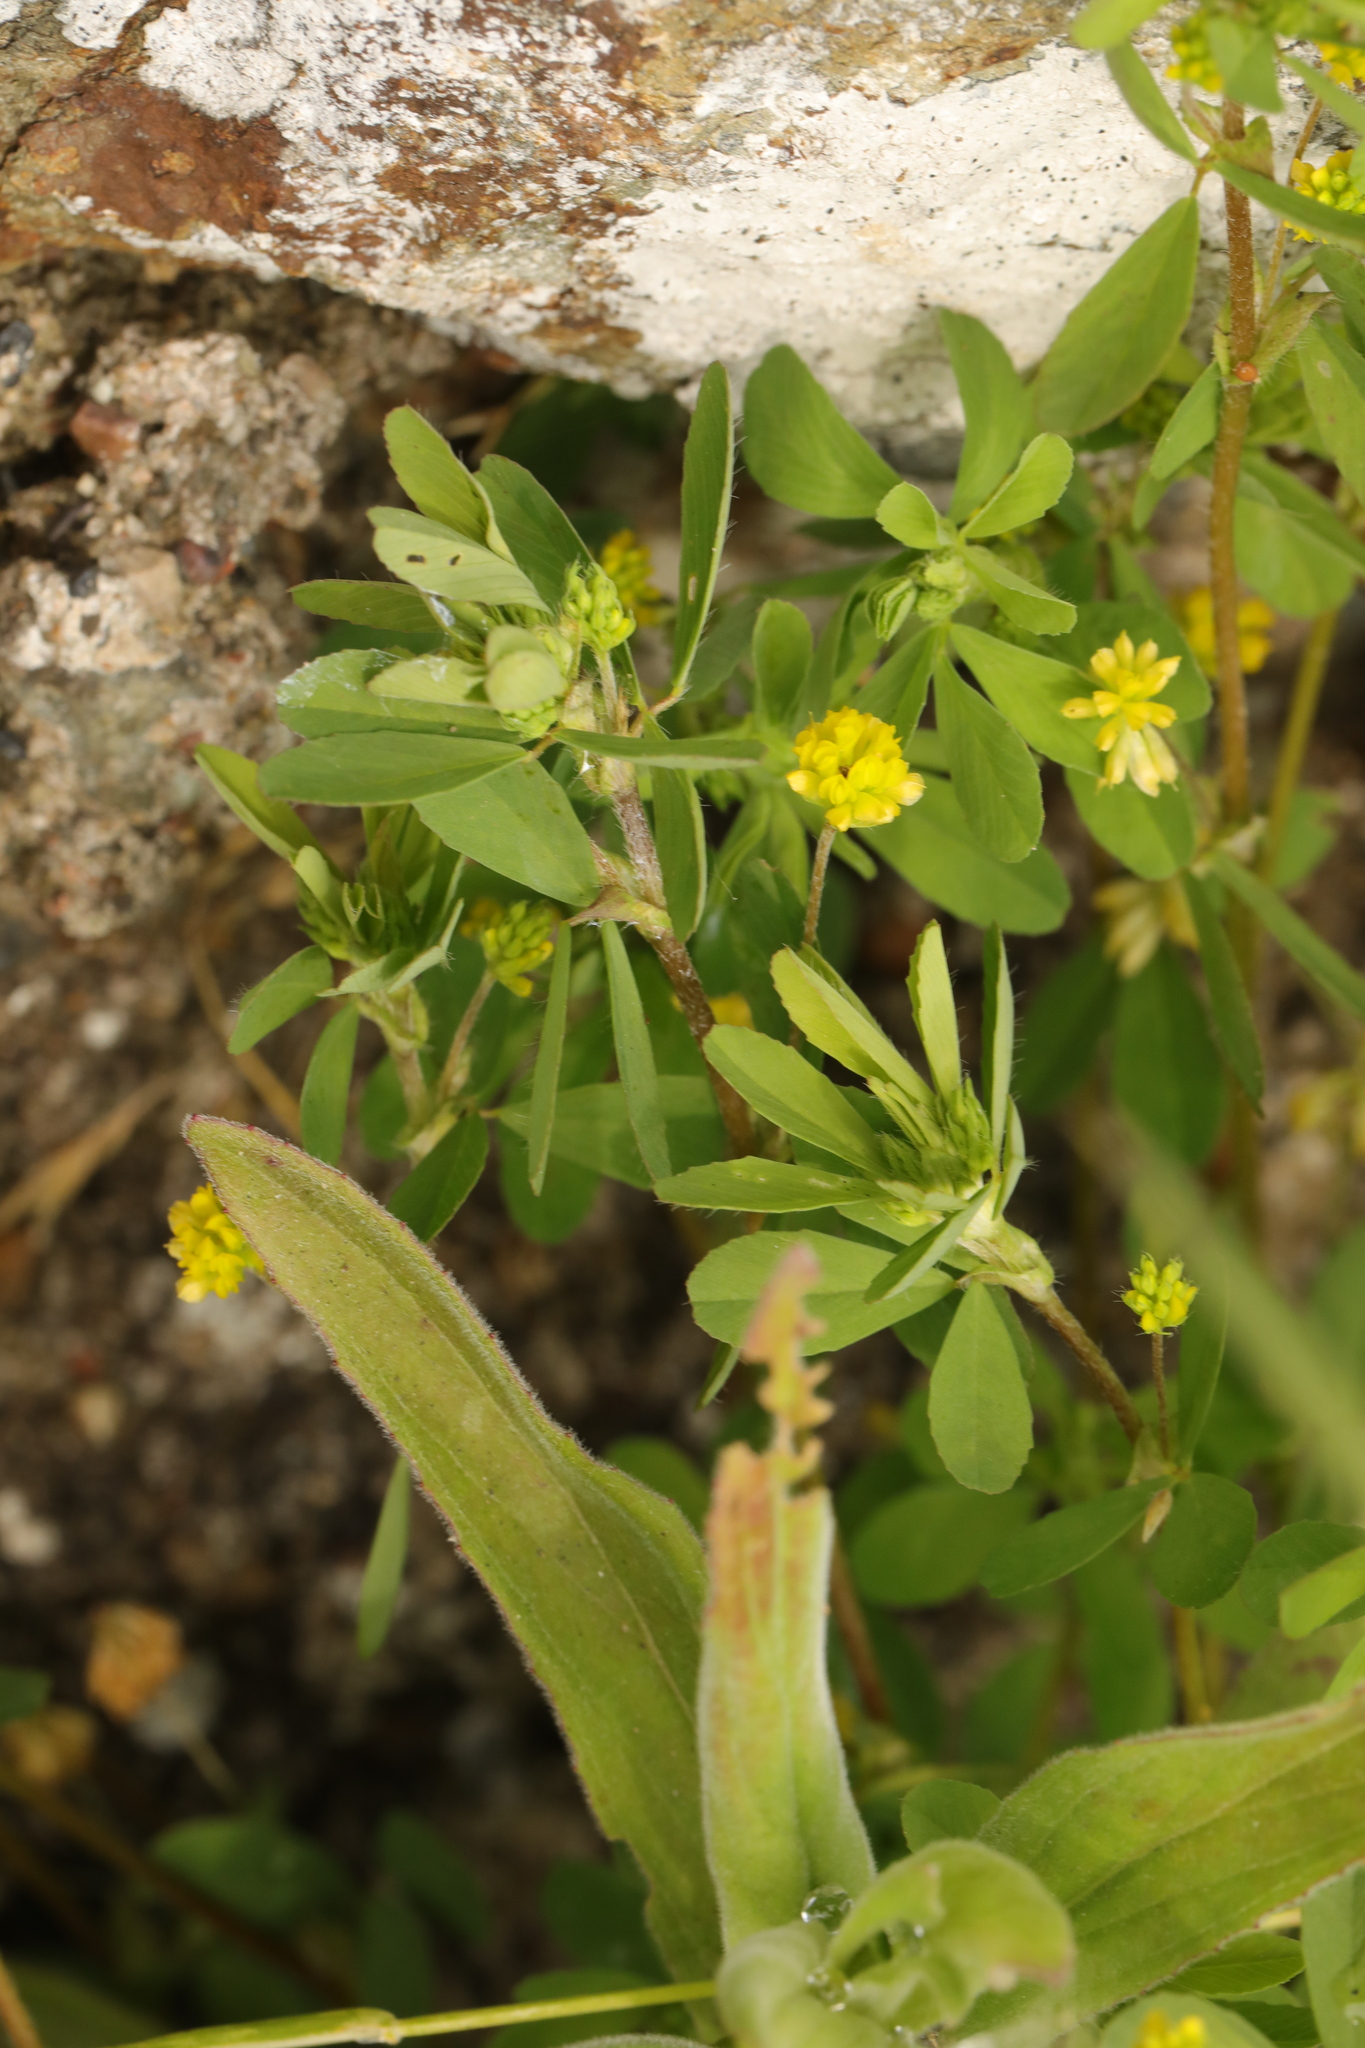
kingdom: Plantae
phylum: Tracheophyta
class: Magnoliopsida
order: Fabales
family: Fabaceae
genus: Trifolium
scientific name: Trifolium dubium
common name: Suckling clover
